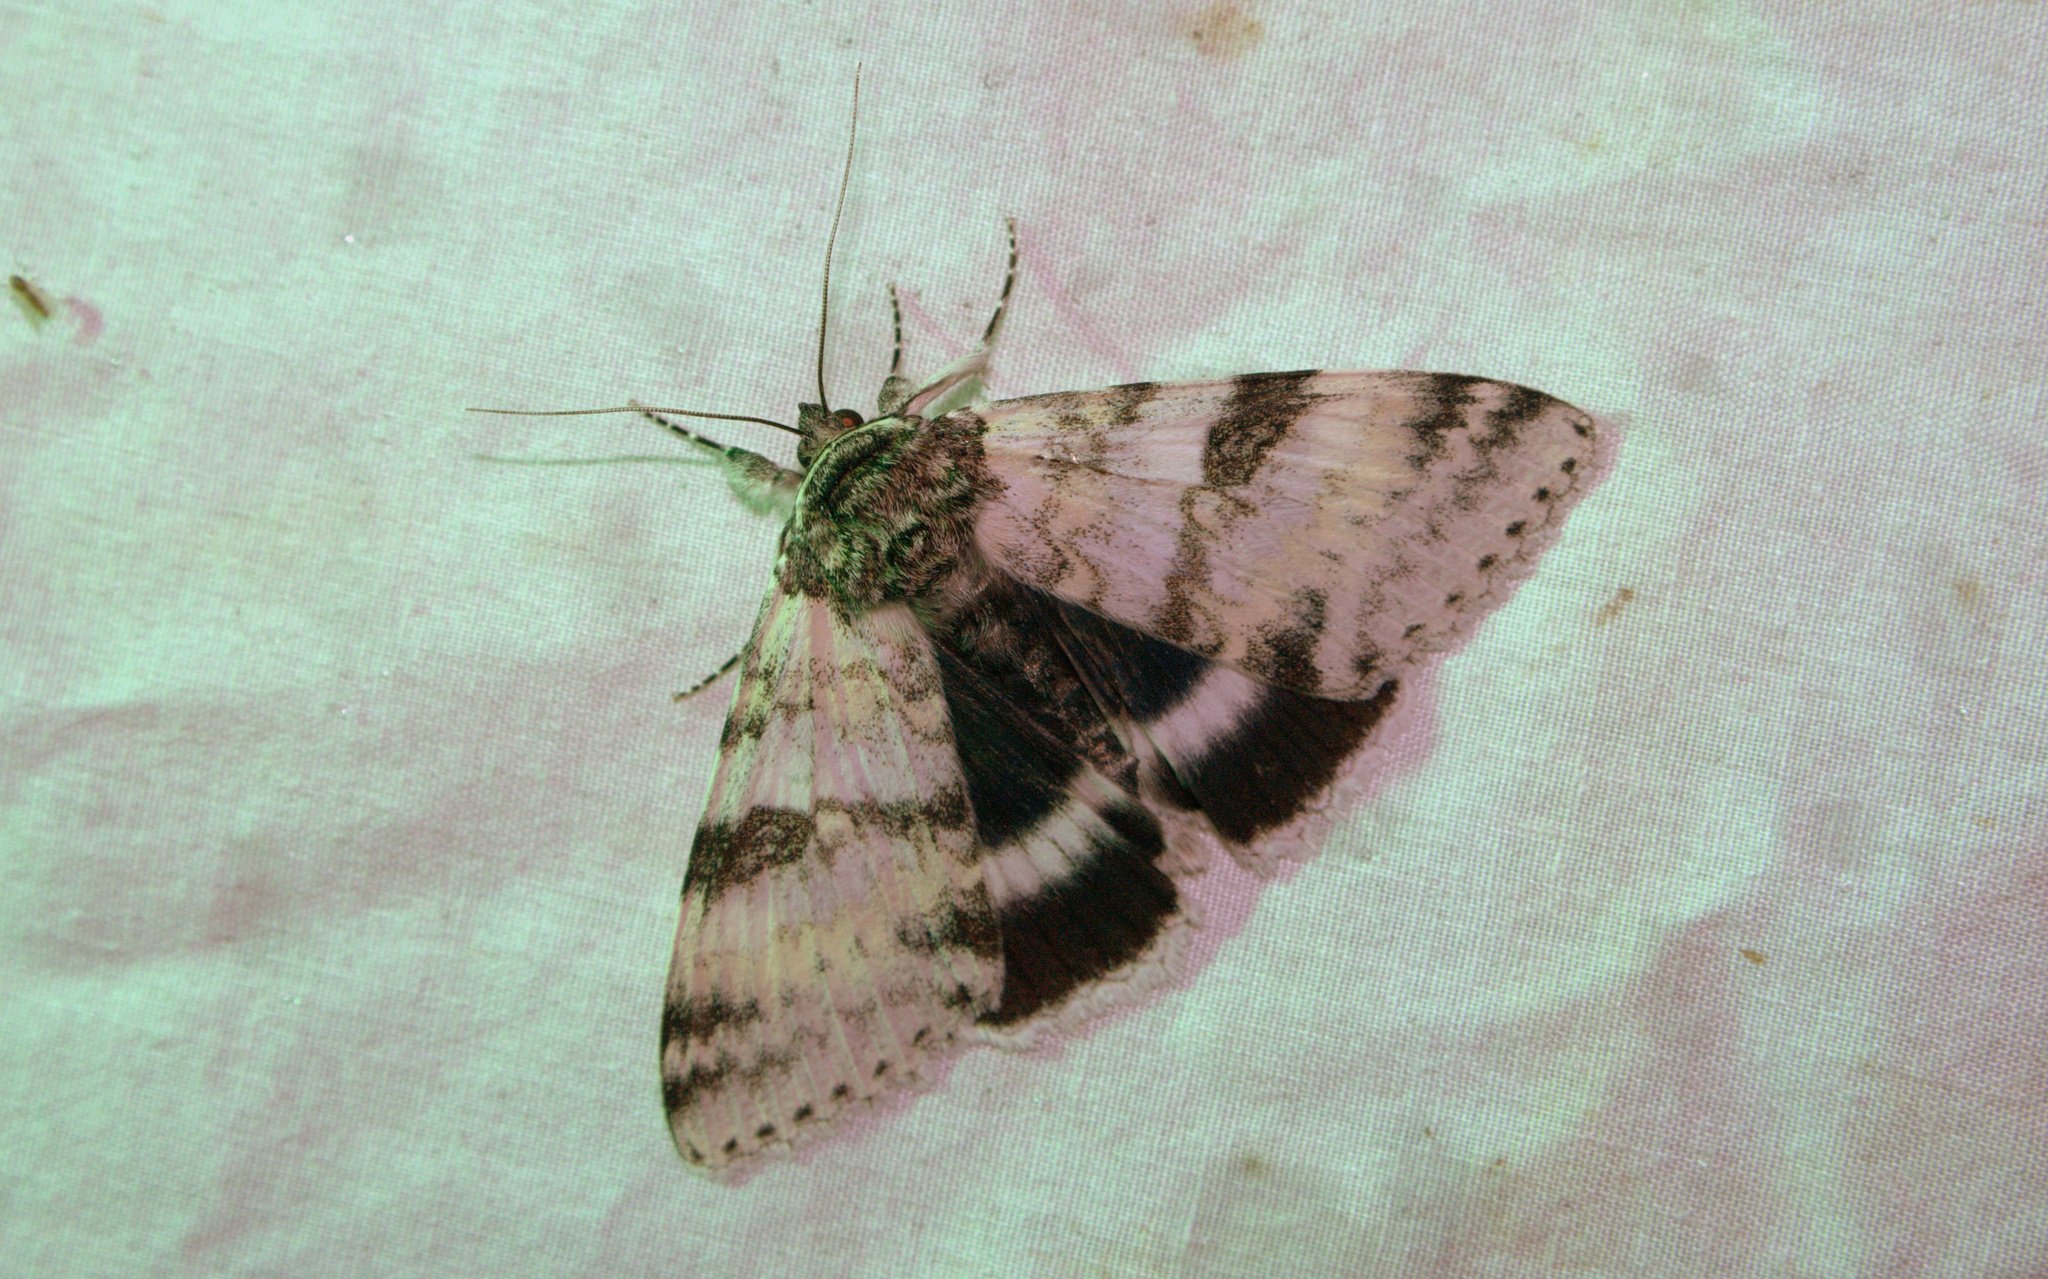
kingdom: Animalia
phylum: Arthropoda
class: Insecta
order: Lepidoptera
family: Erebidae
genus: Catocala
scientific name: Catocala relicta
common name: White underwing
